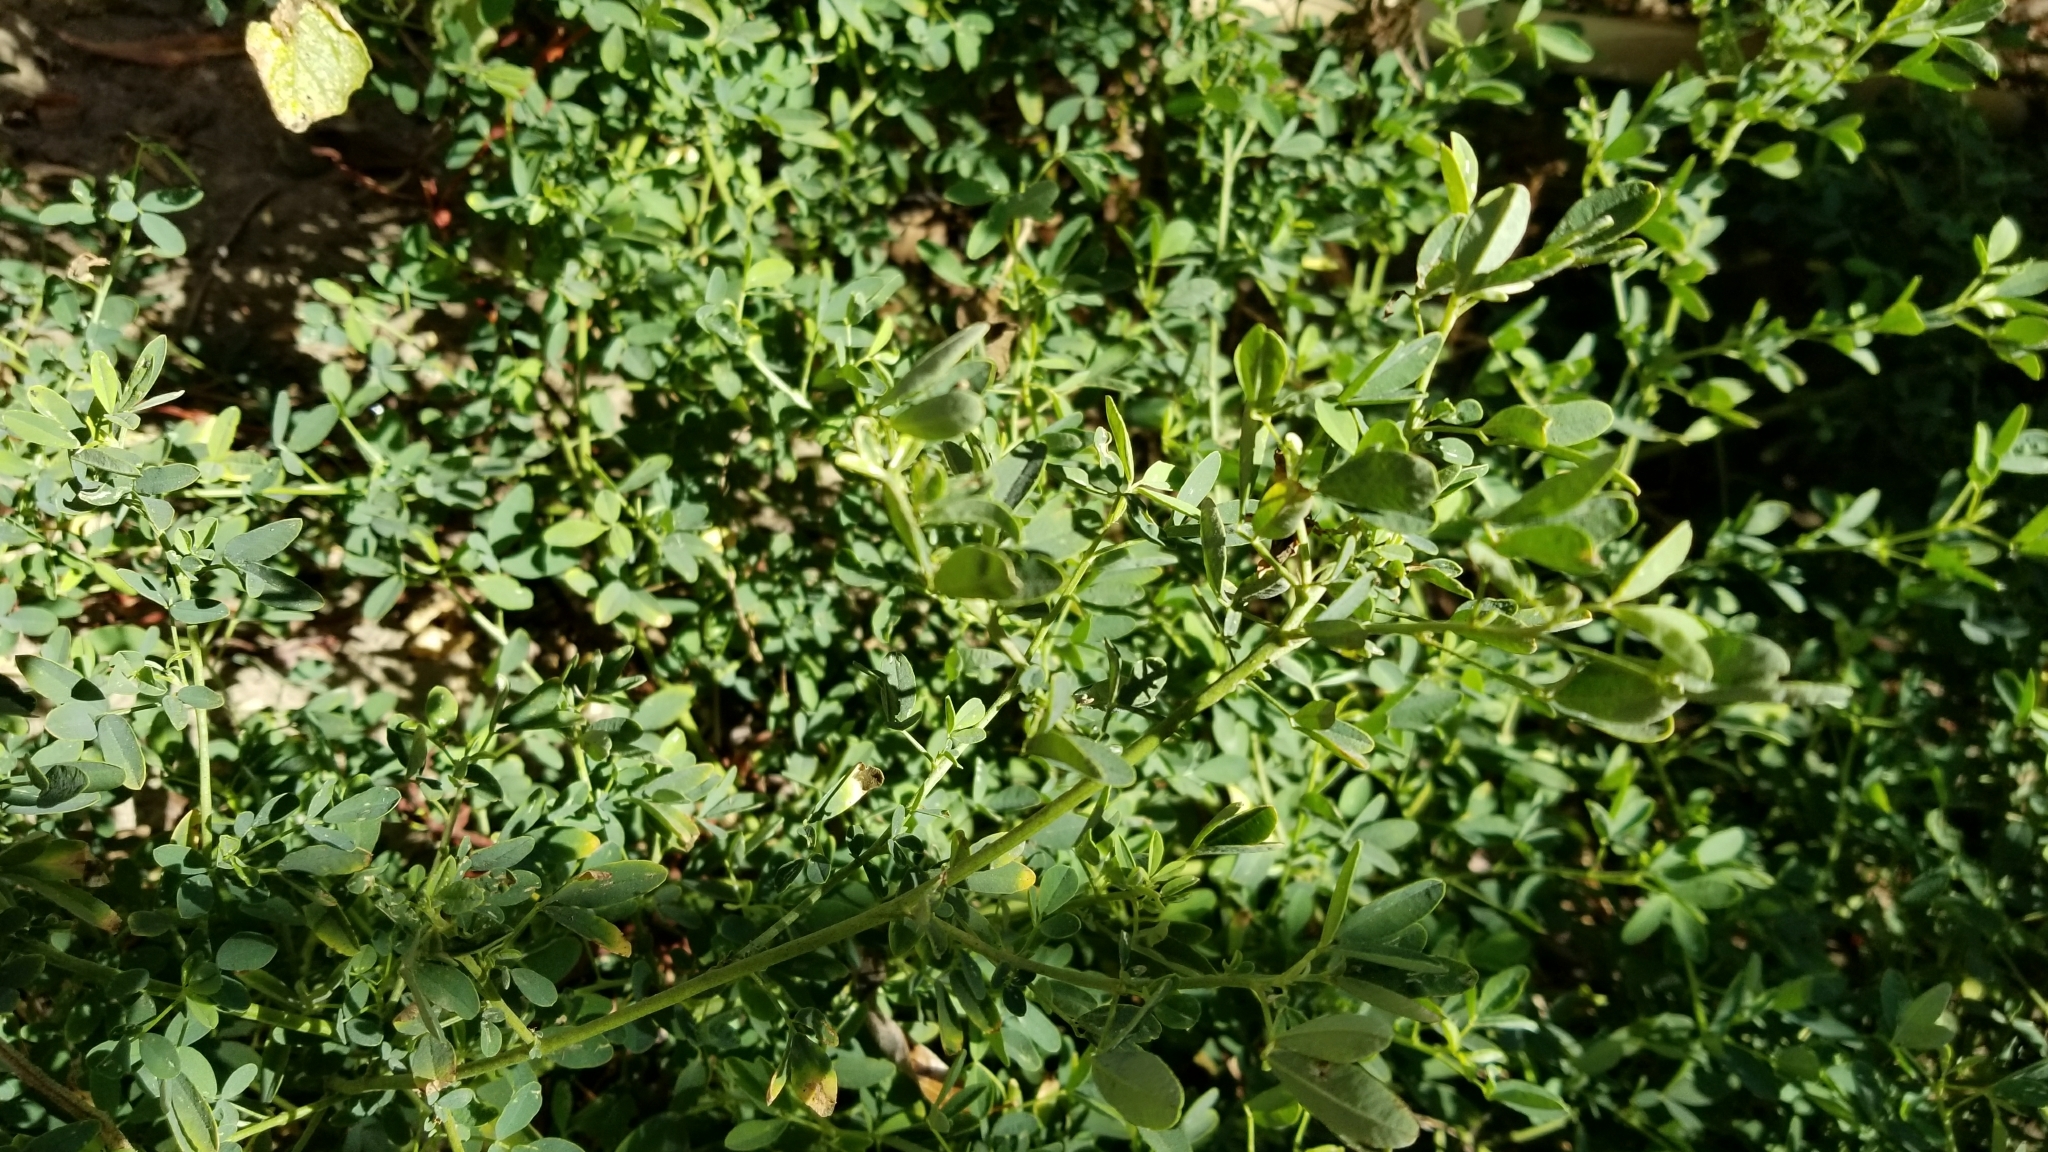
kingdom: Plantae
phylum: Tracheophyta
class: Magnoliopsida
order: Fabales
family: Fabaceae
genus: Melilotus
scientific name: Melilotus albus
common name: White melilot
